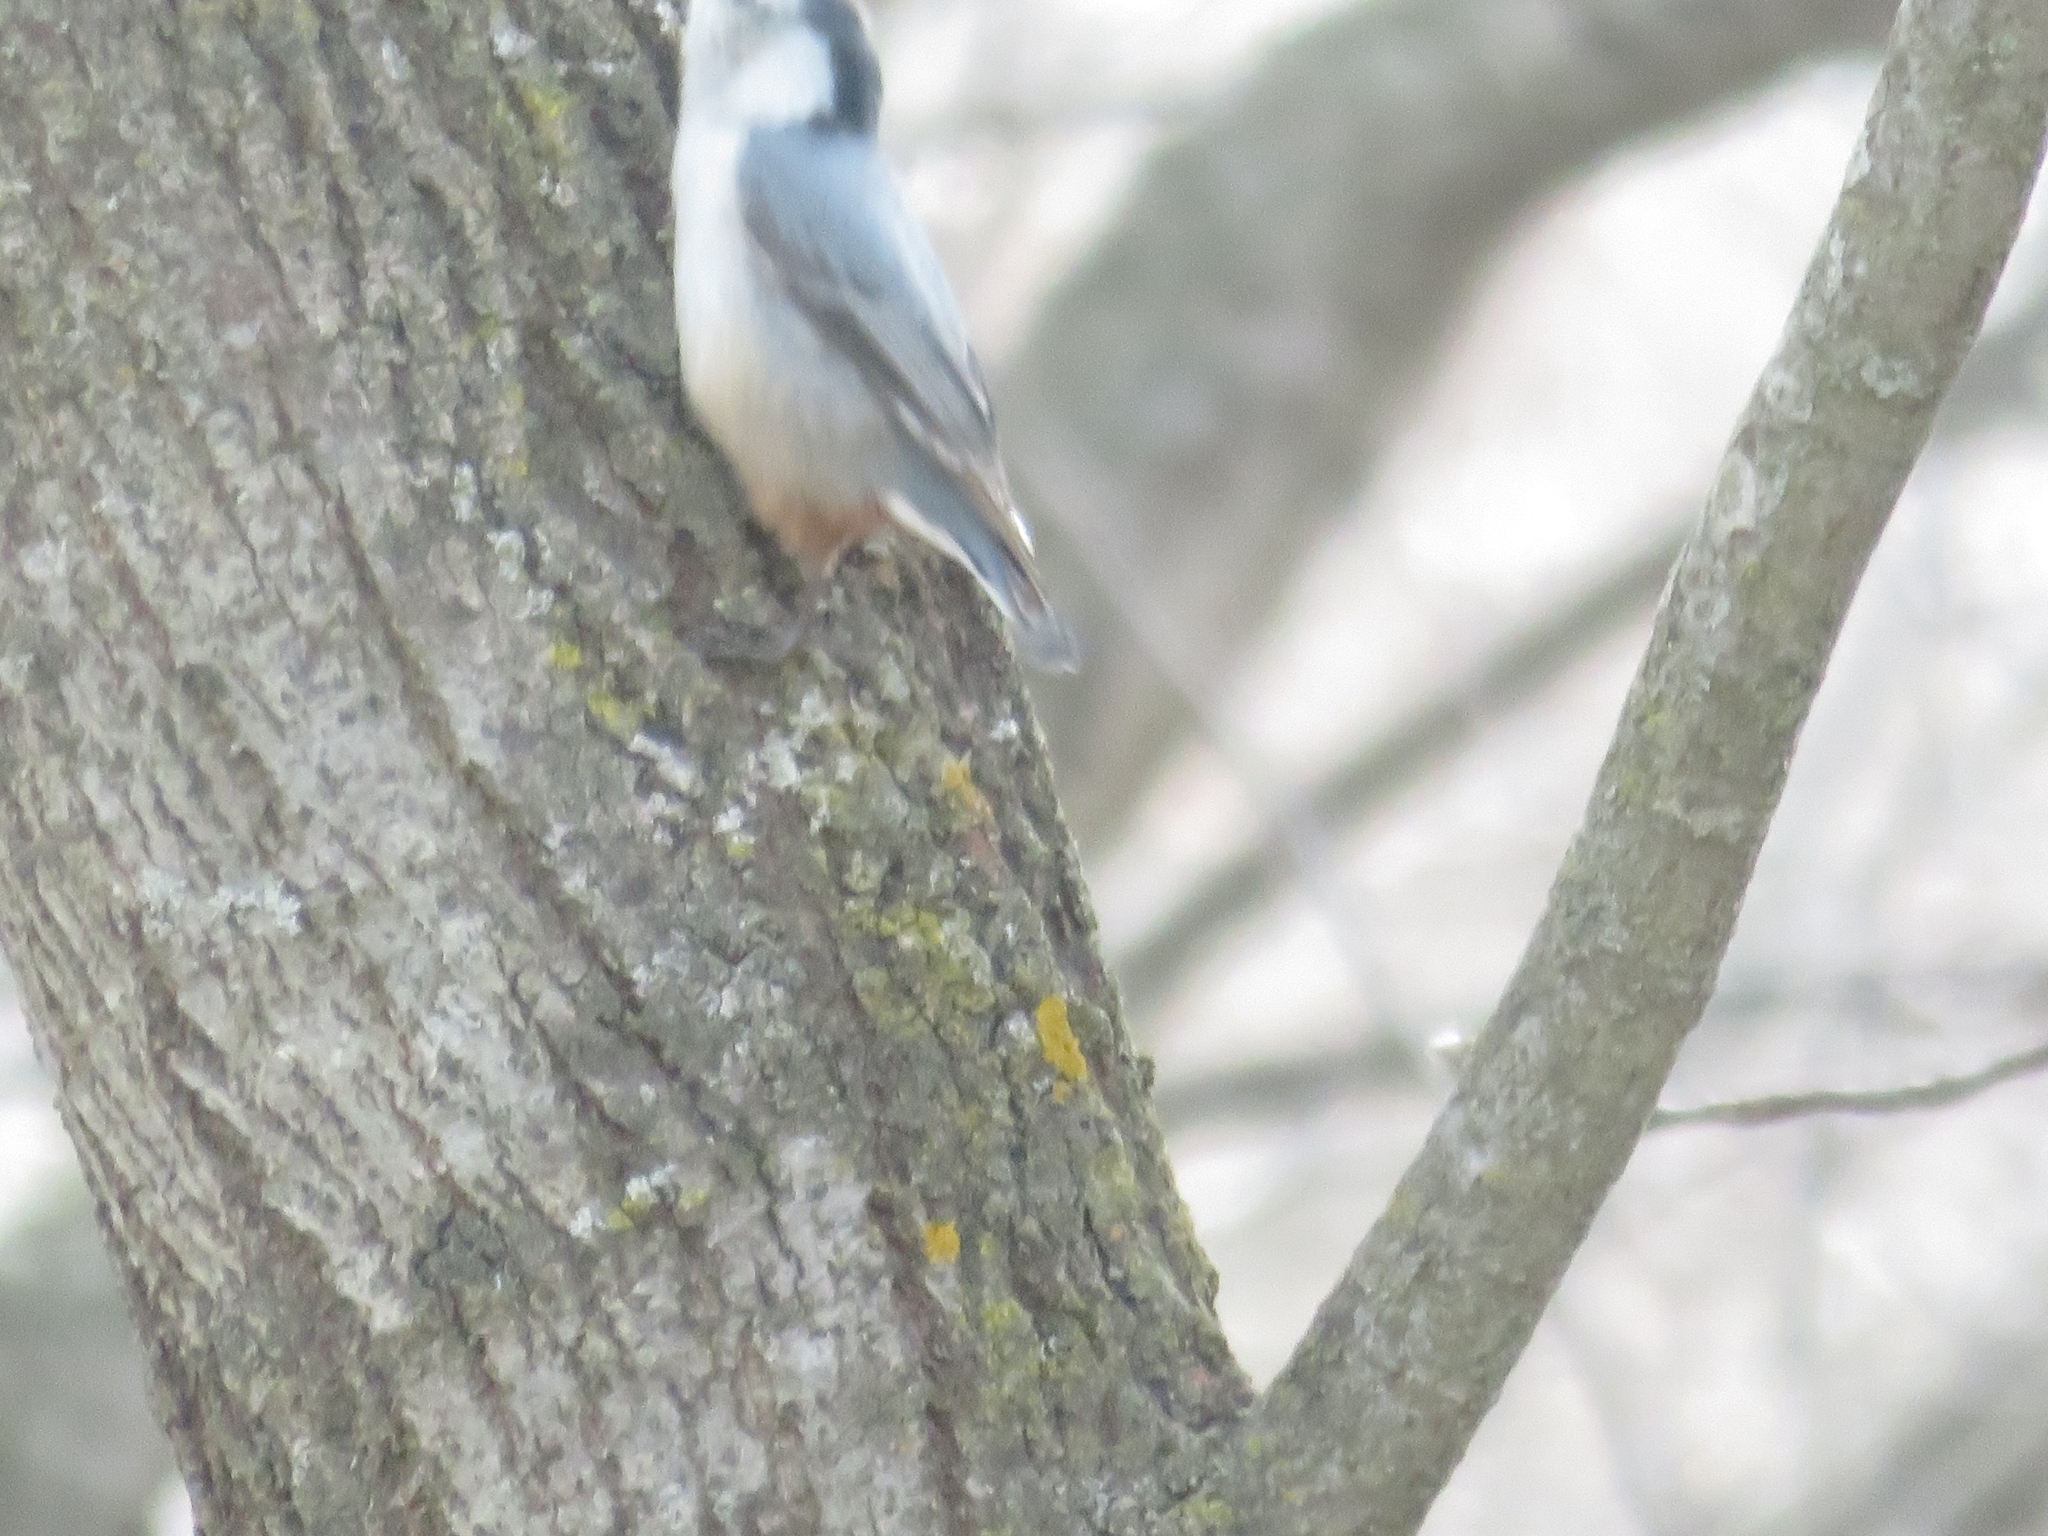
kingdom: Animalia
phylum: Chordata
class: Aves
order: Passeriformes
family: Sittidae
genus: Sitta
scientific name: Sitta carolinensis
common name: White-breasted nuthatch
